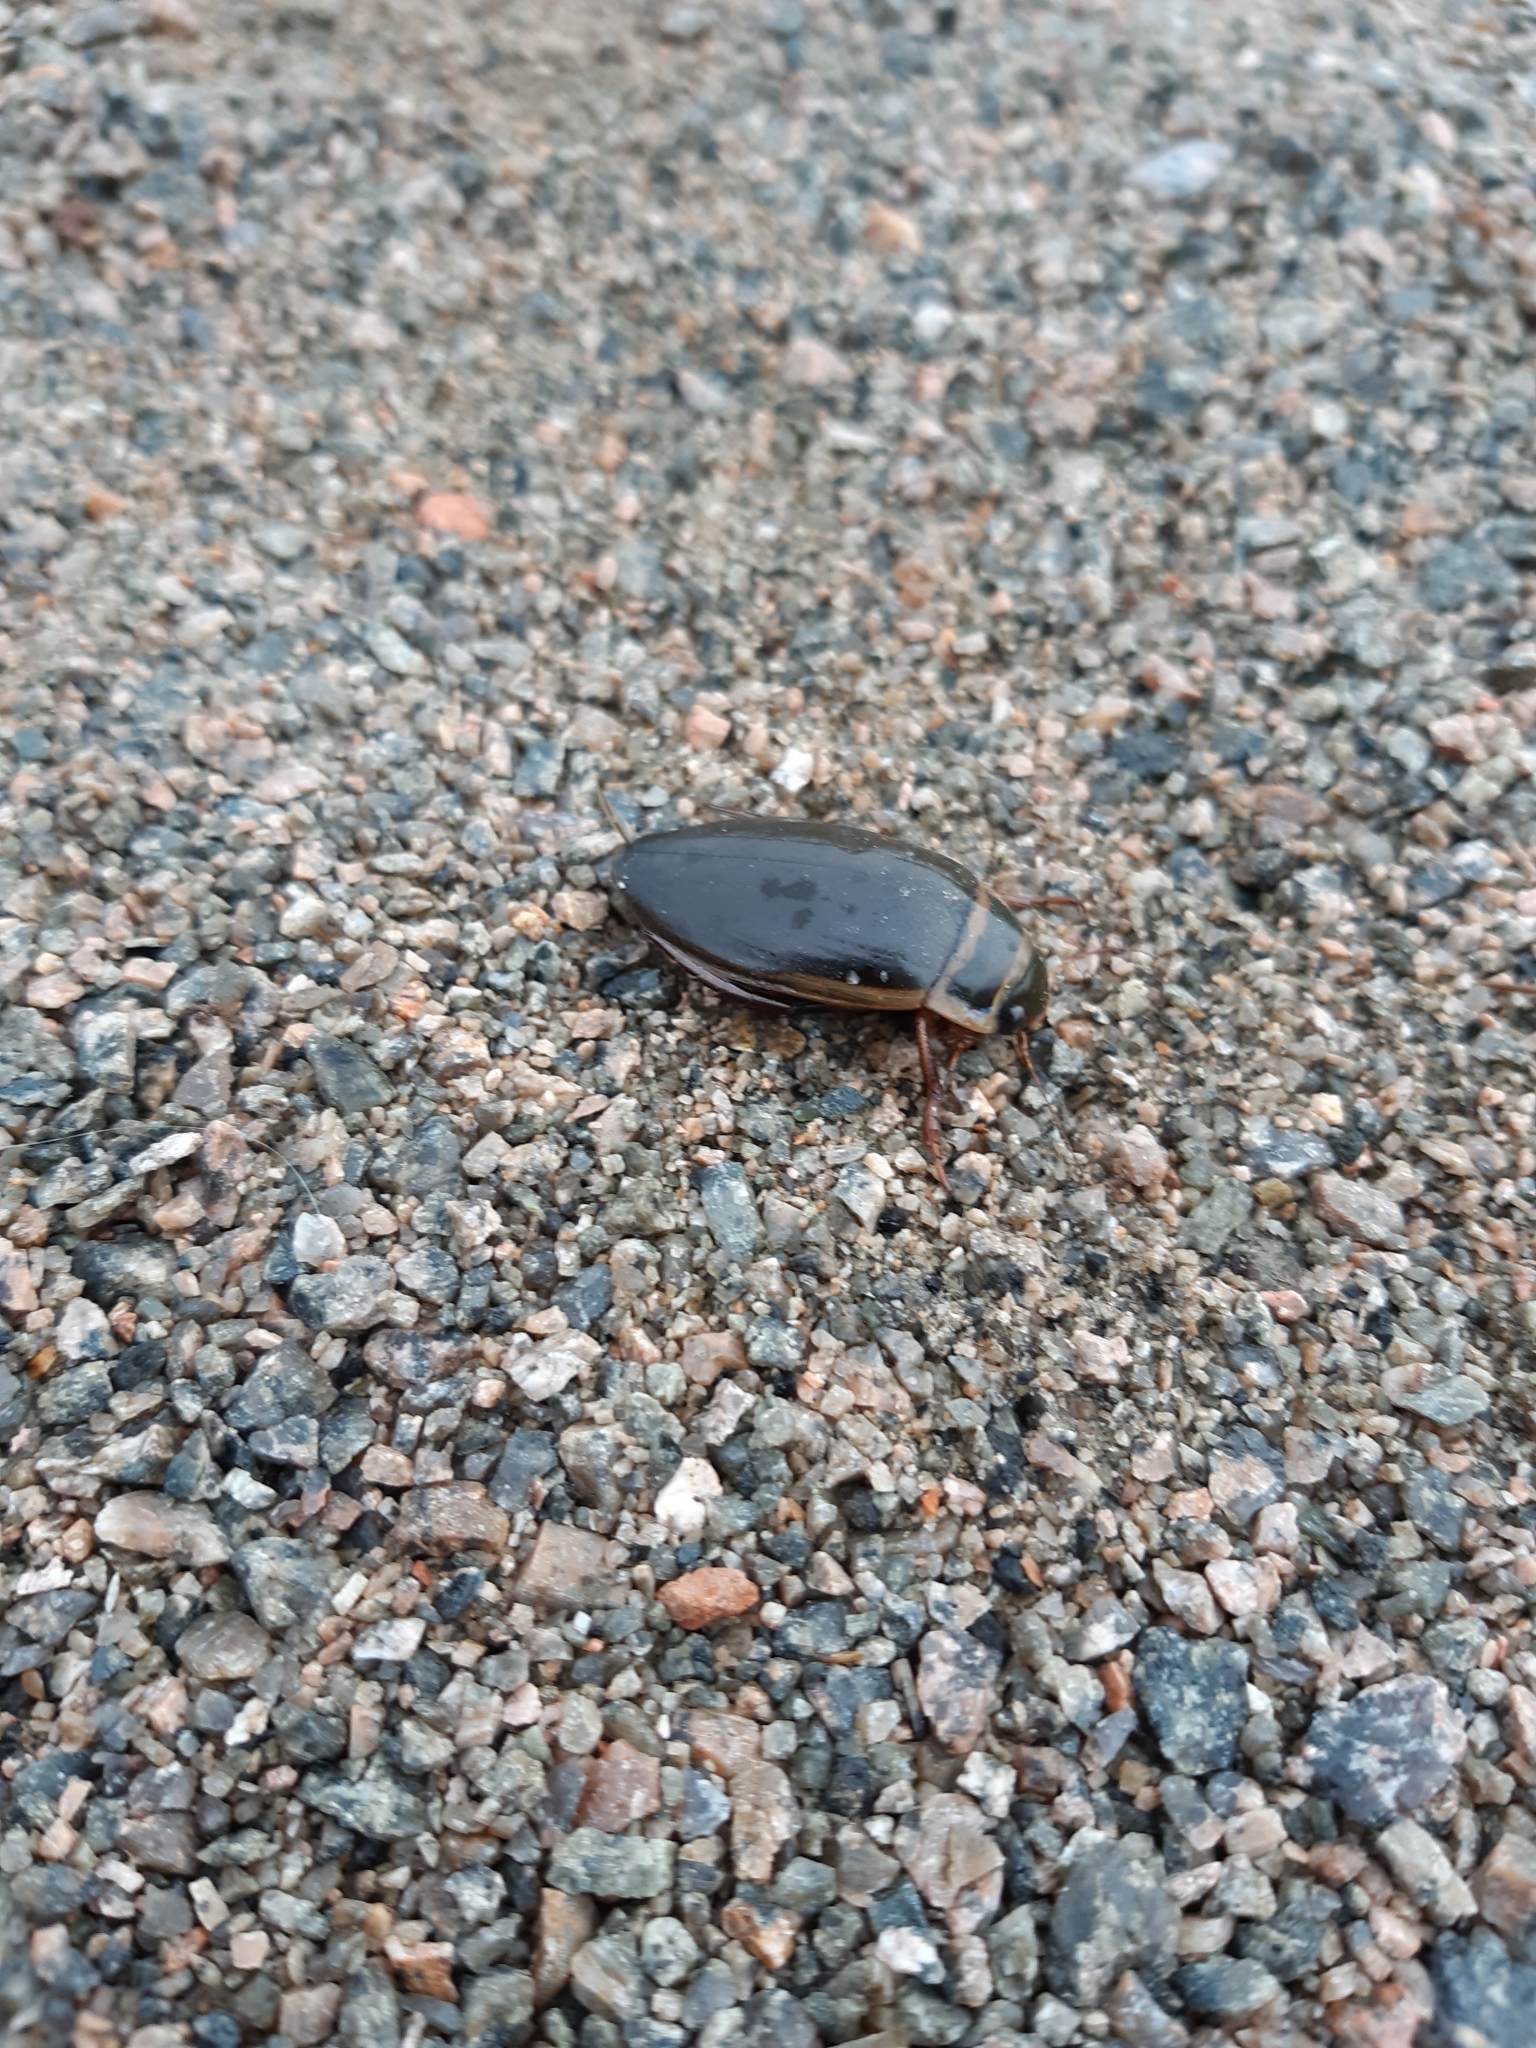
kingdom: Animalia
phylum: Arthropoda
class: Insecta
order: Coleoptera
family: Dytiscidae
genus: Dytiscus
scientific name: Dytiscus marginalis
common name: Great water beetle
